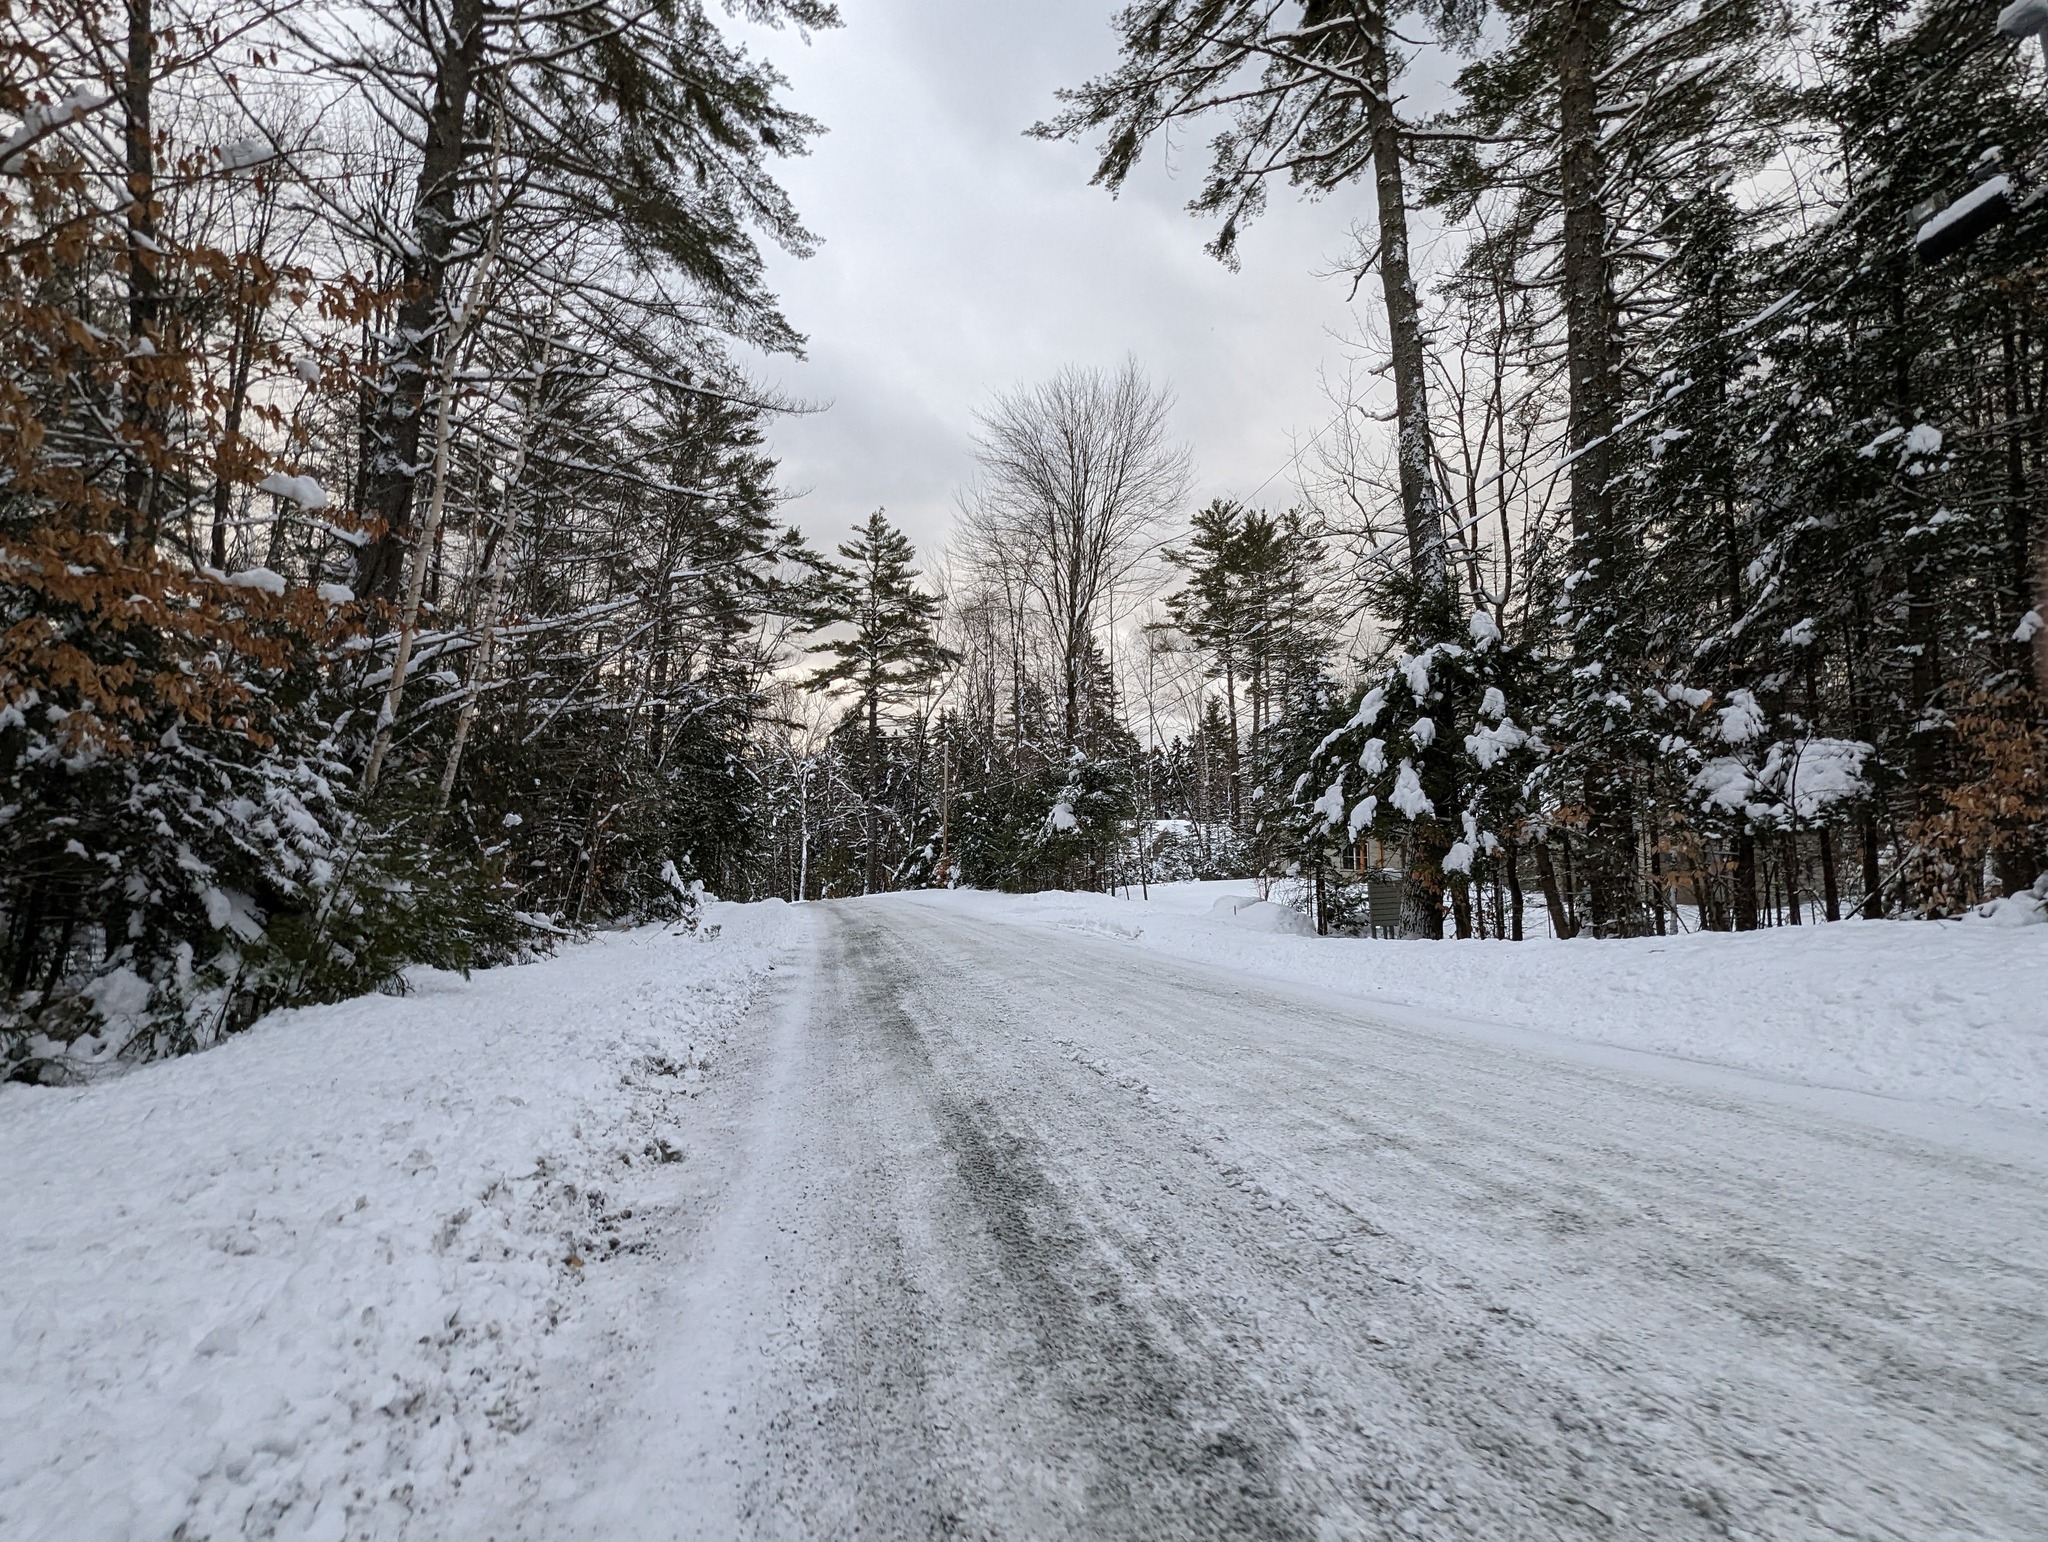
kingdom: Plantae
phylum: Tracheophyta
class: Pinopsida
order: Pinales
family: Pinaceae
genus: Pinus
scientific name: Pinus strobus
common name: Weymouth pine
